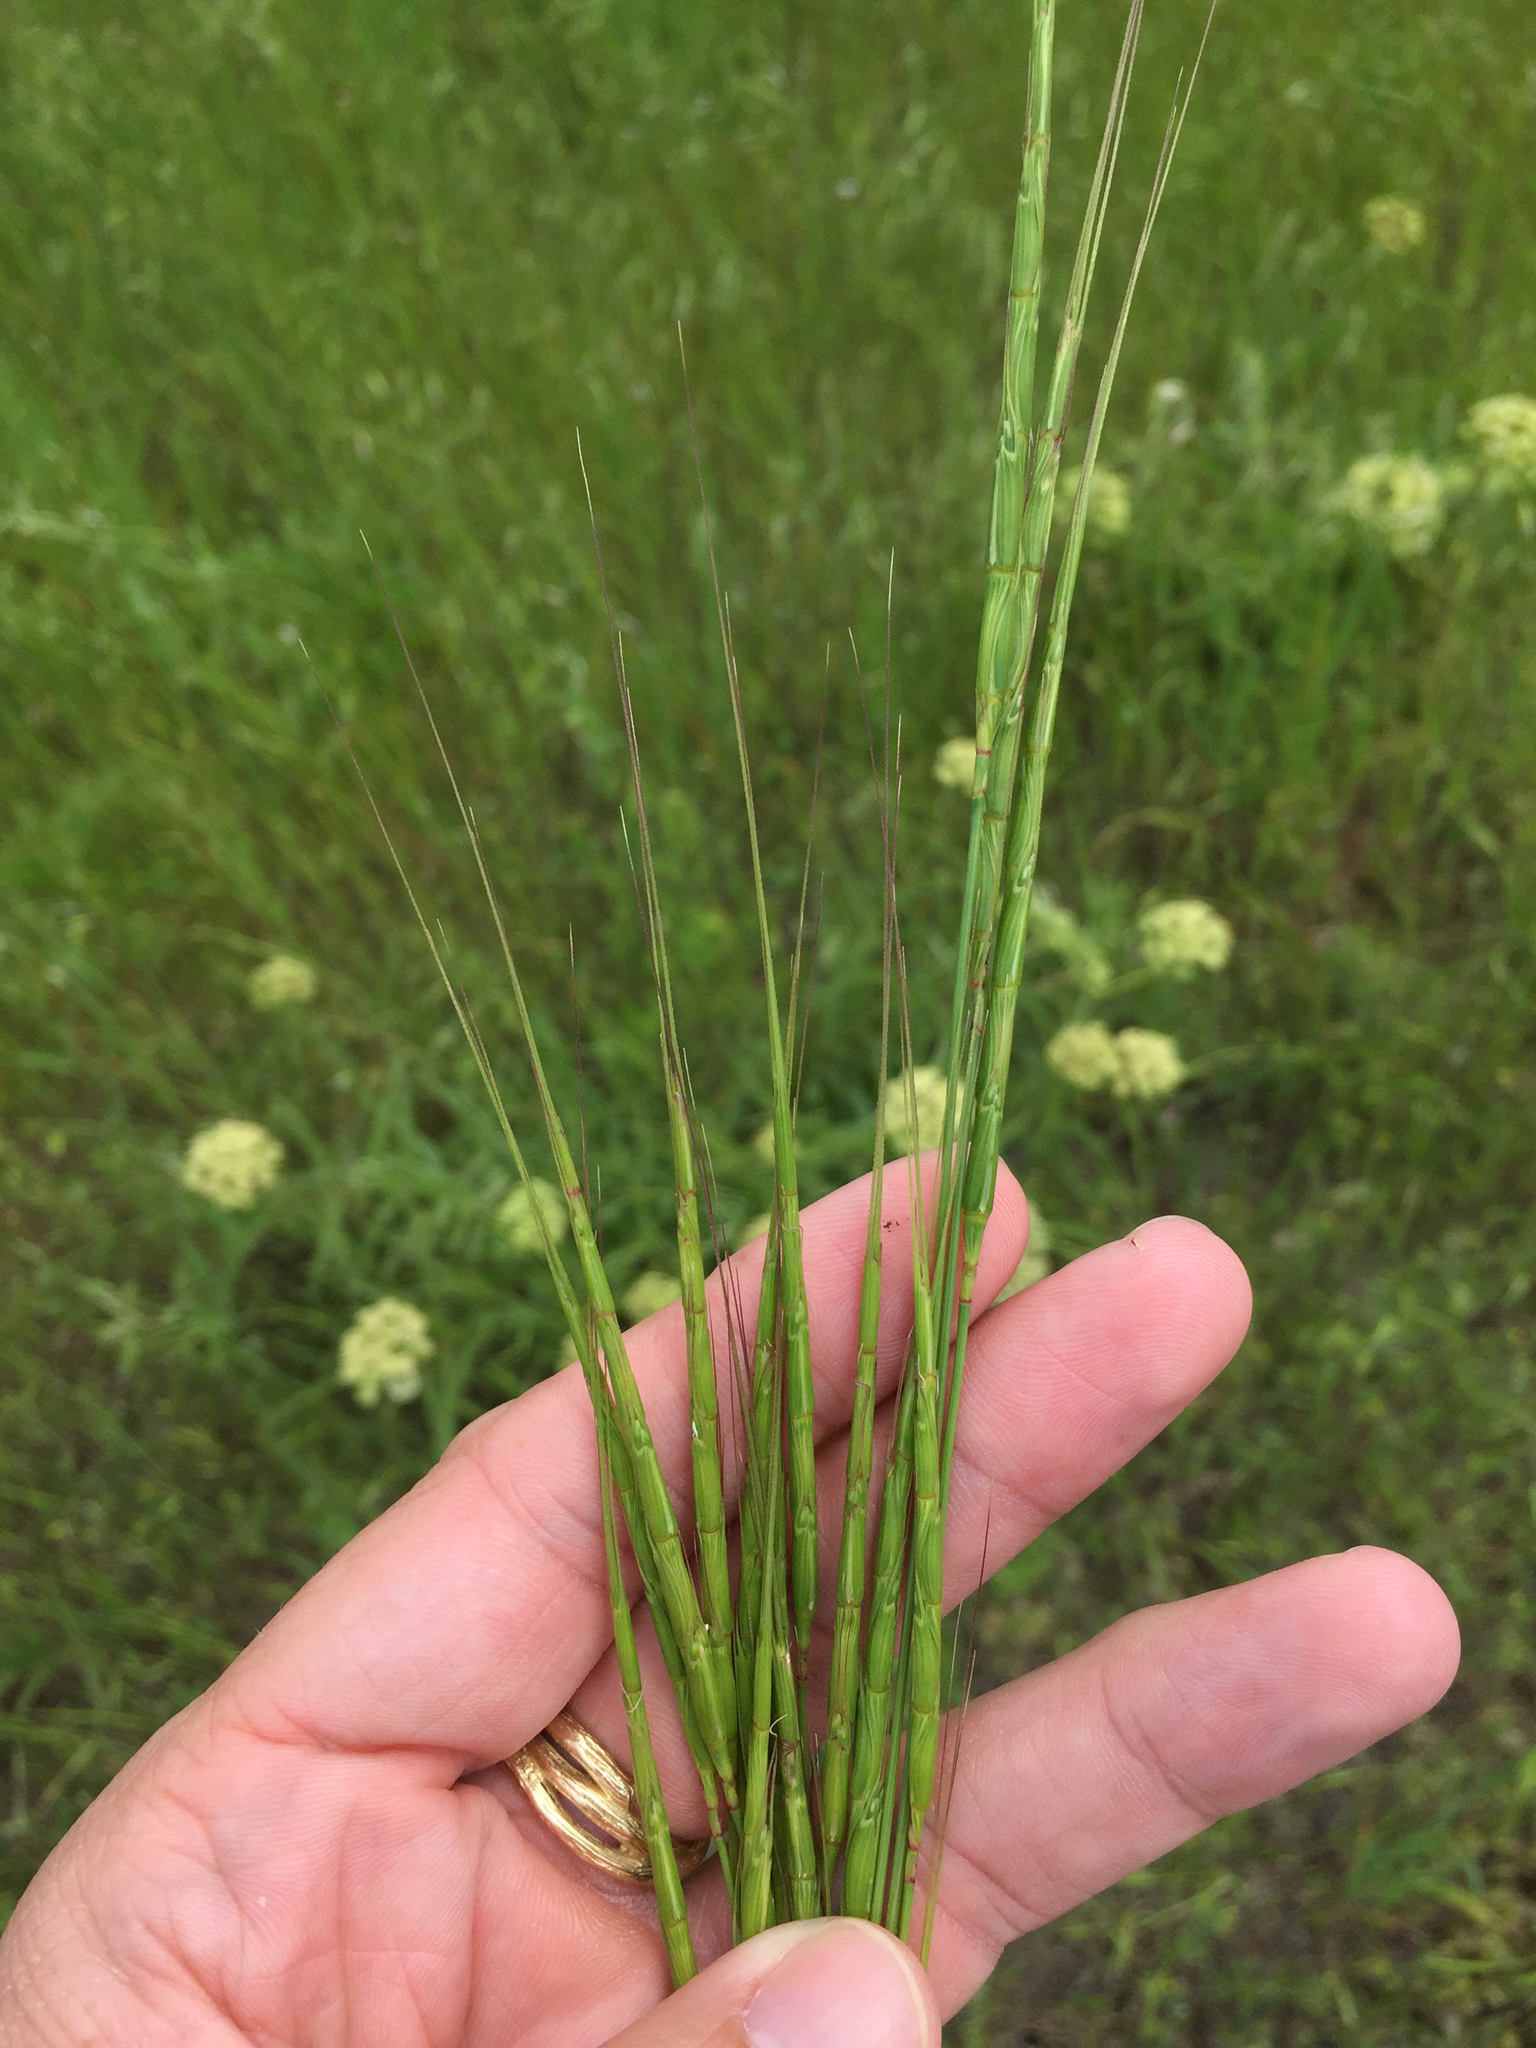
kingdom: Plantae
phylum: Tracheophyta
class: Liliopsida
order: Poales
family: Poaceae
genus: Aegilops
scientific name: Aegilops cylindrica
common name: Jointed goatgrass
